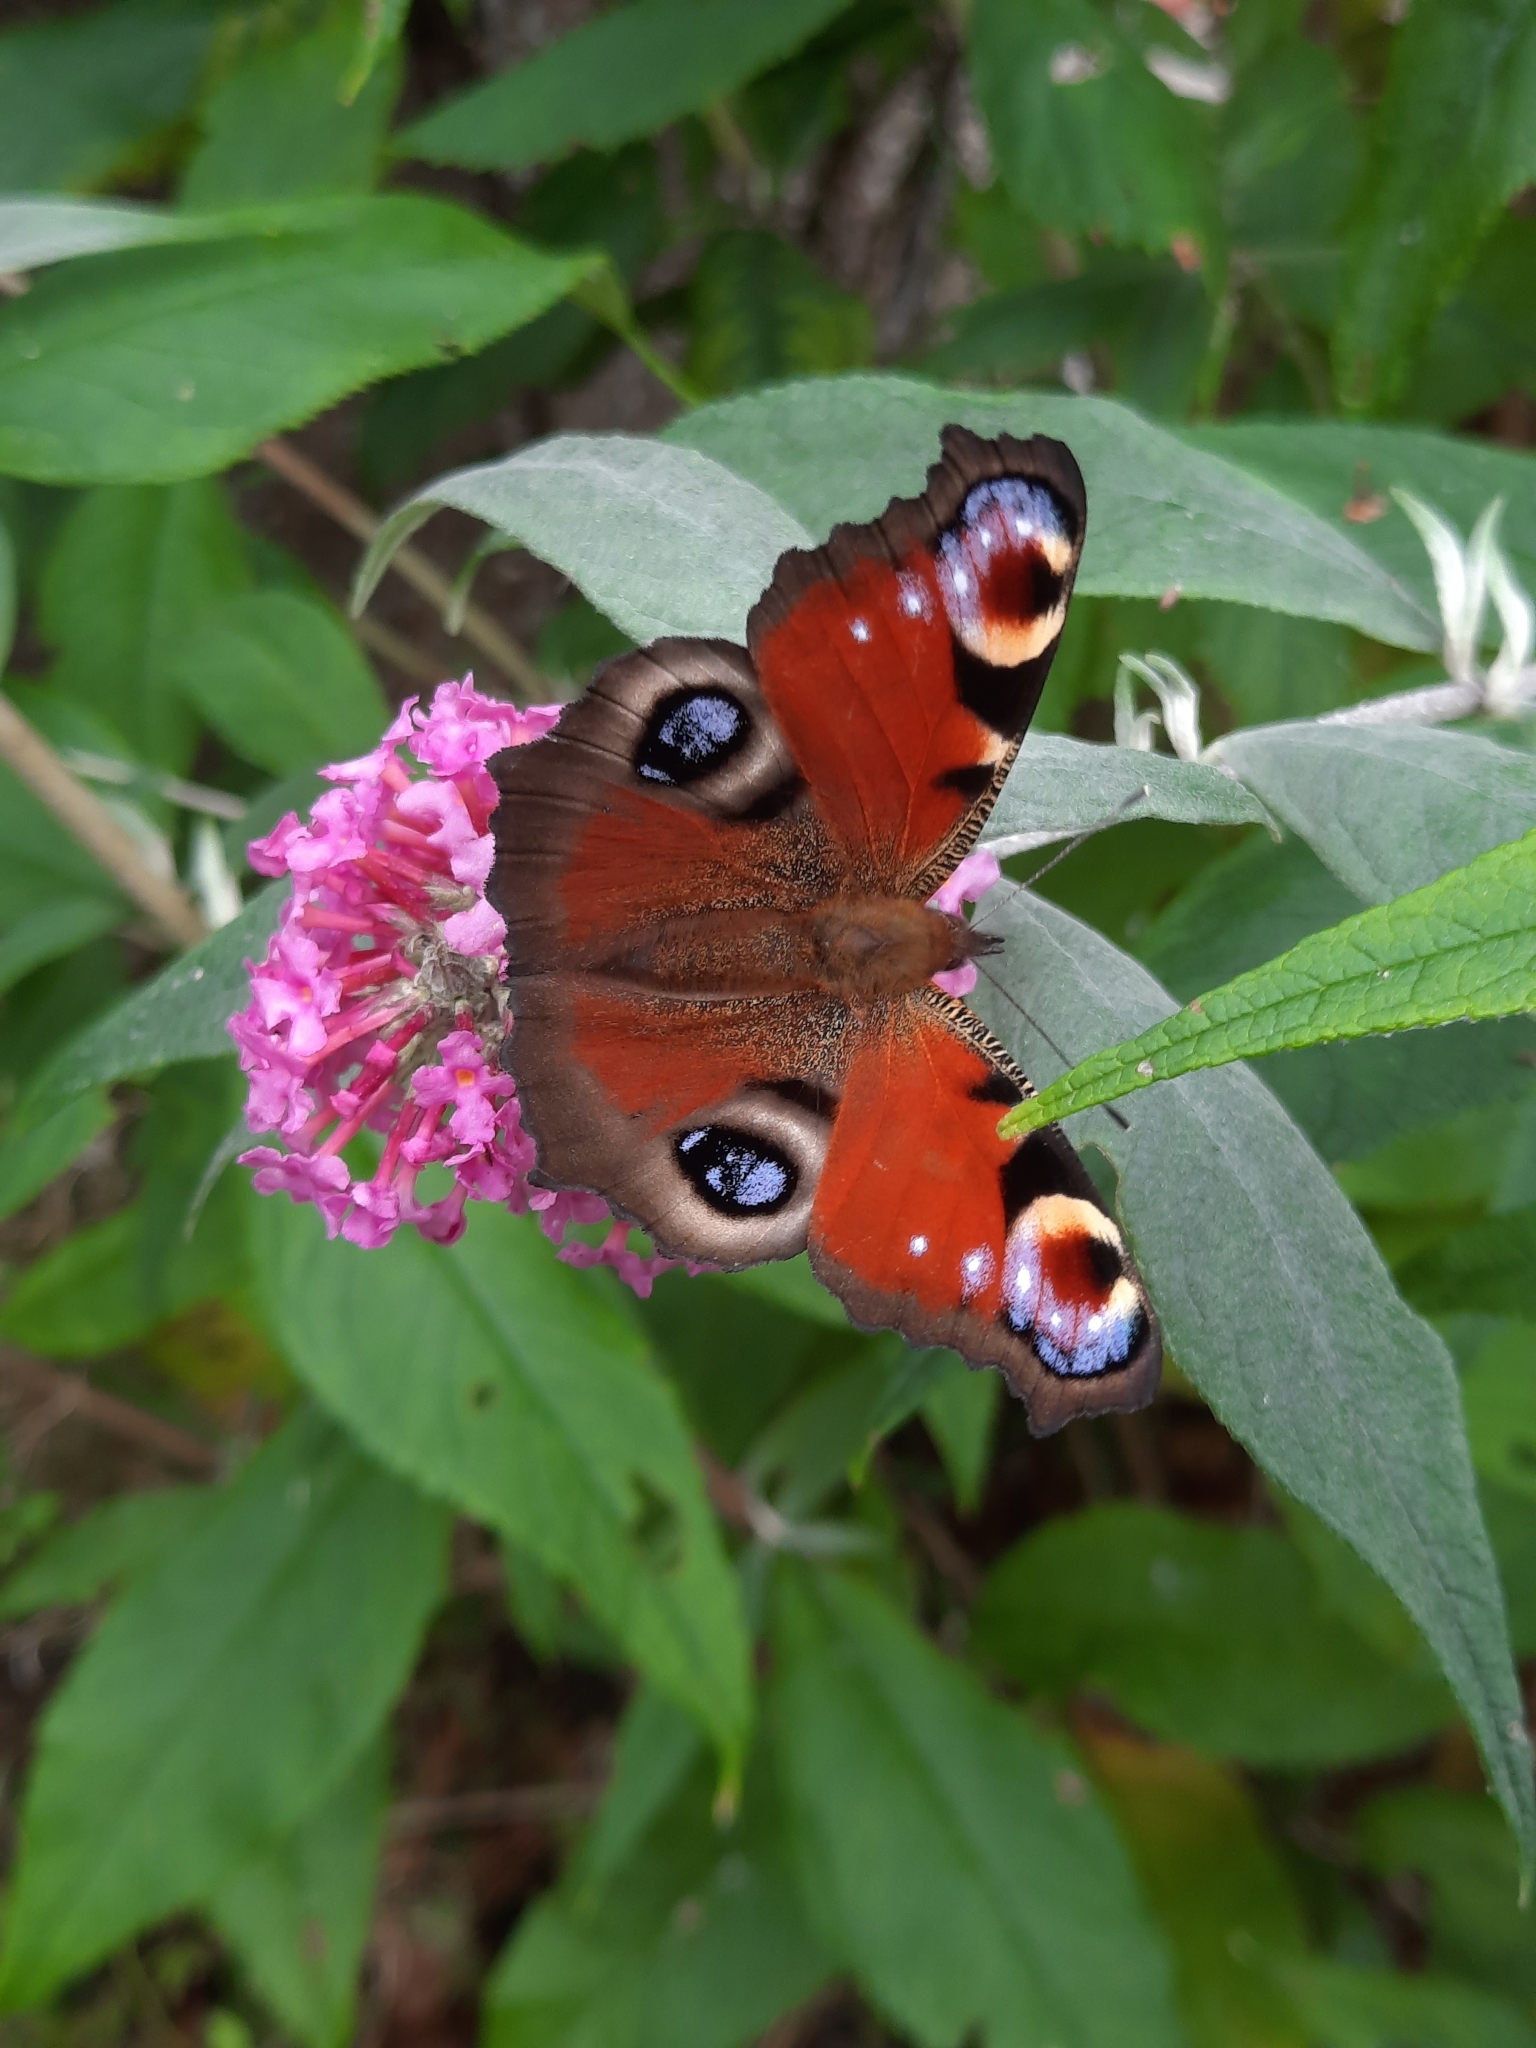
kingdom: Animalia
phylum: Arthropoda
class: Insecta
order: Lepidoptera
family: Nymphalidae
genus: Aglais
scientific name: Aglais io
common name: Peacock
